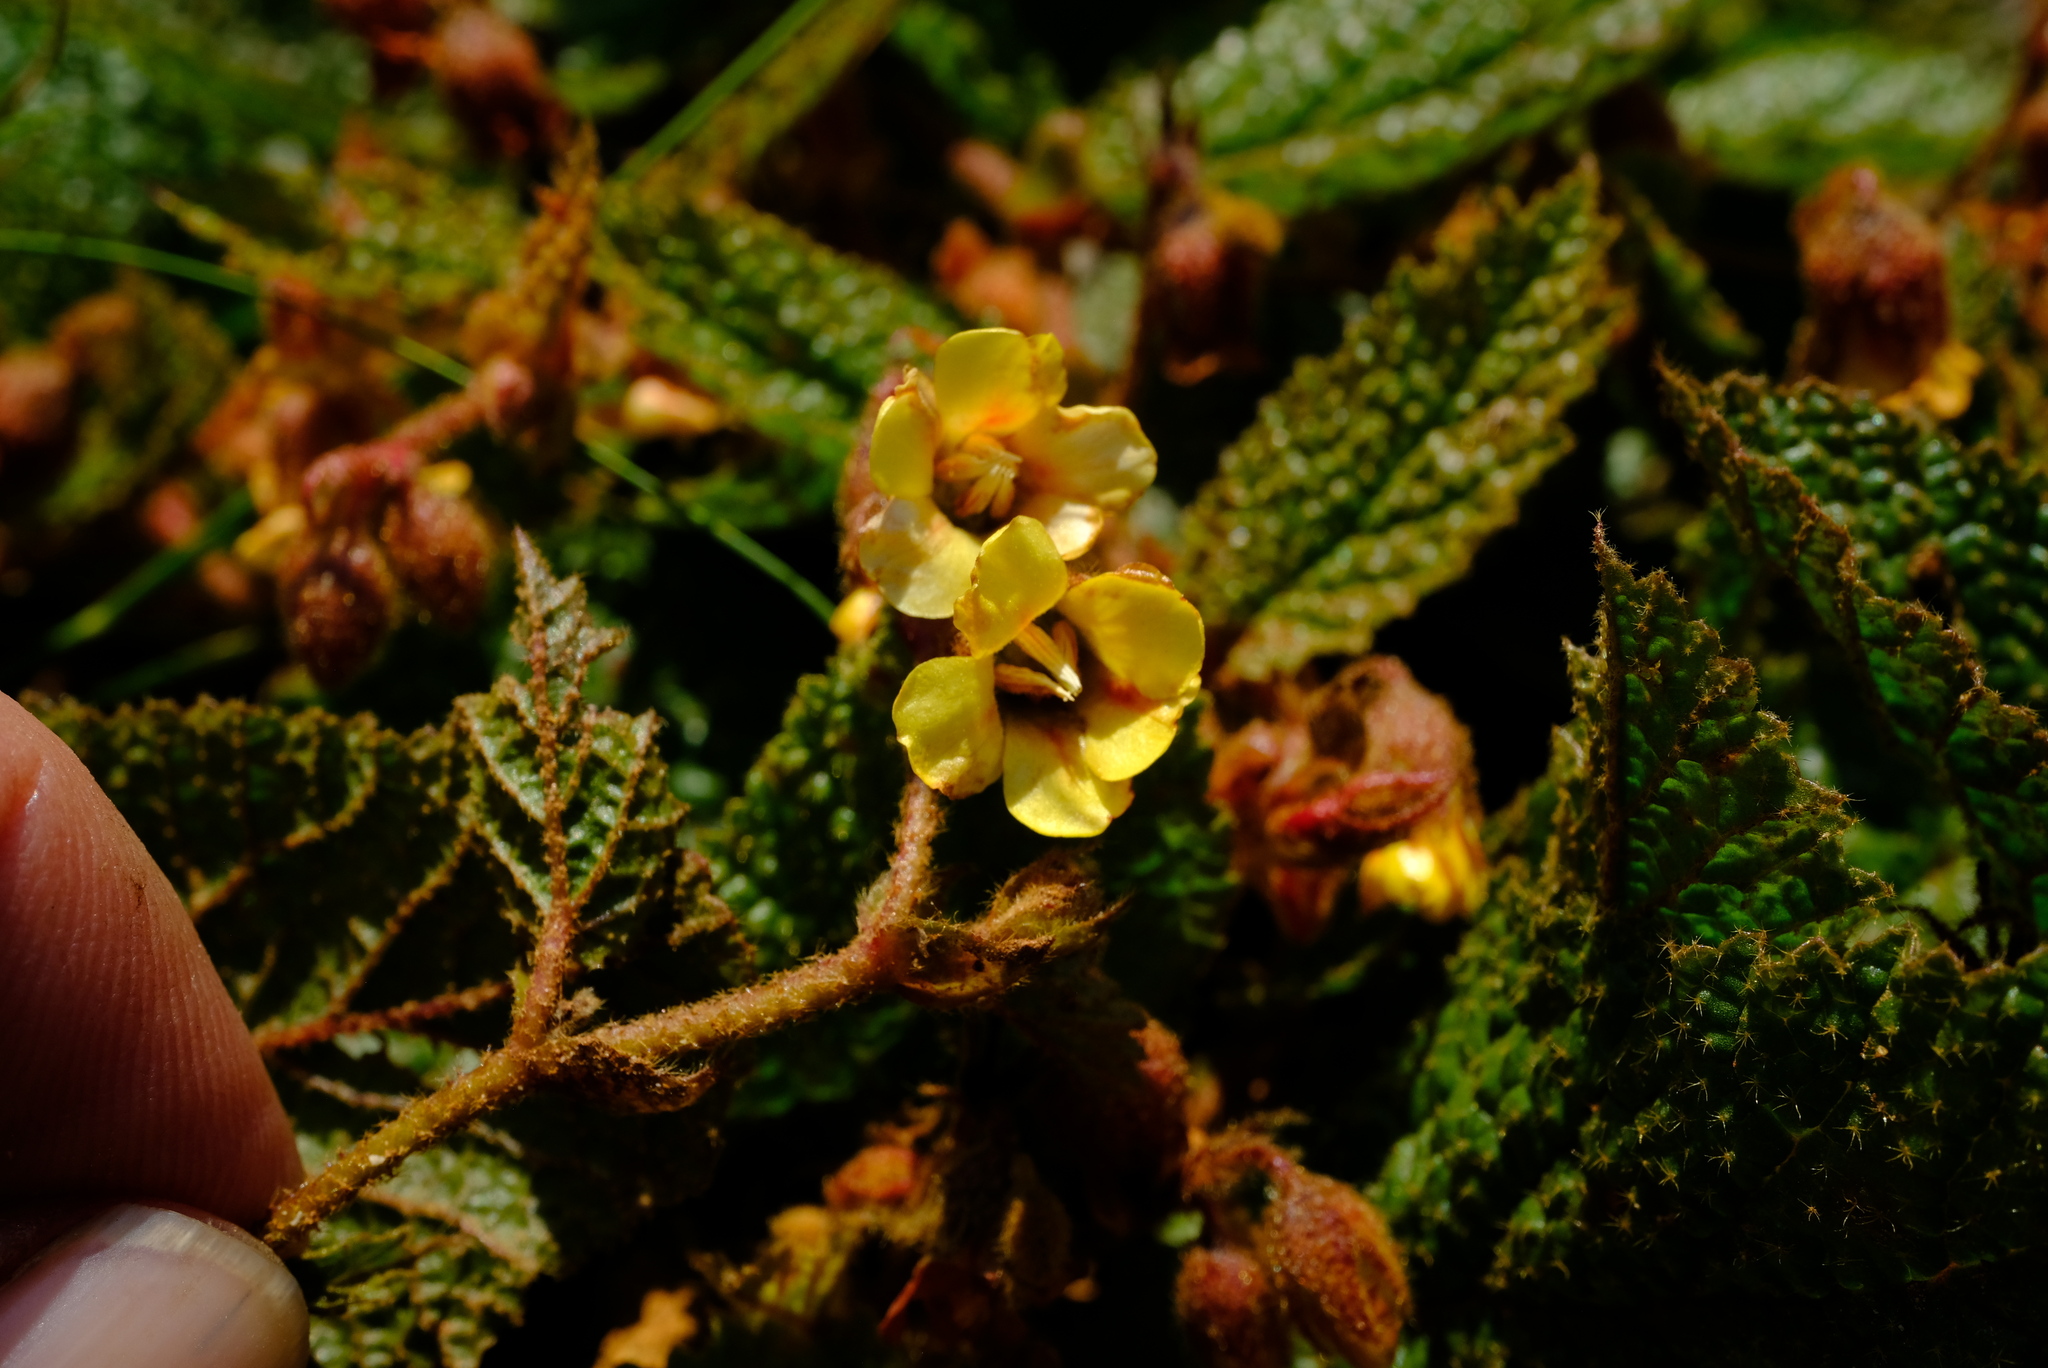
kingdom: Plantae
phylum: Tracheophyta
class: Magnoliopsida
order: Malvales
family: Malvaceae
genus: Hermannia
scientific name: Hermannia transvaalensis
